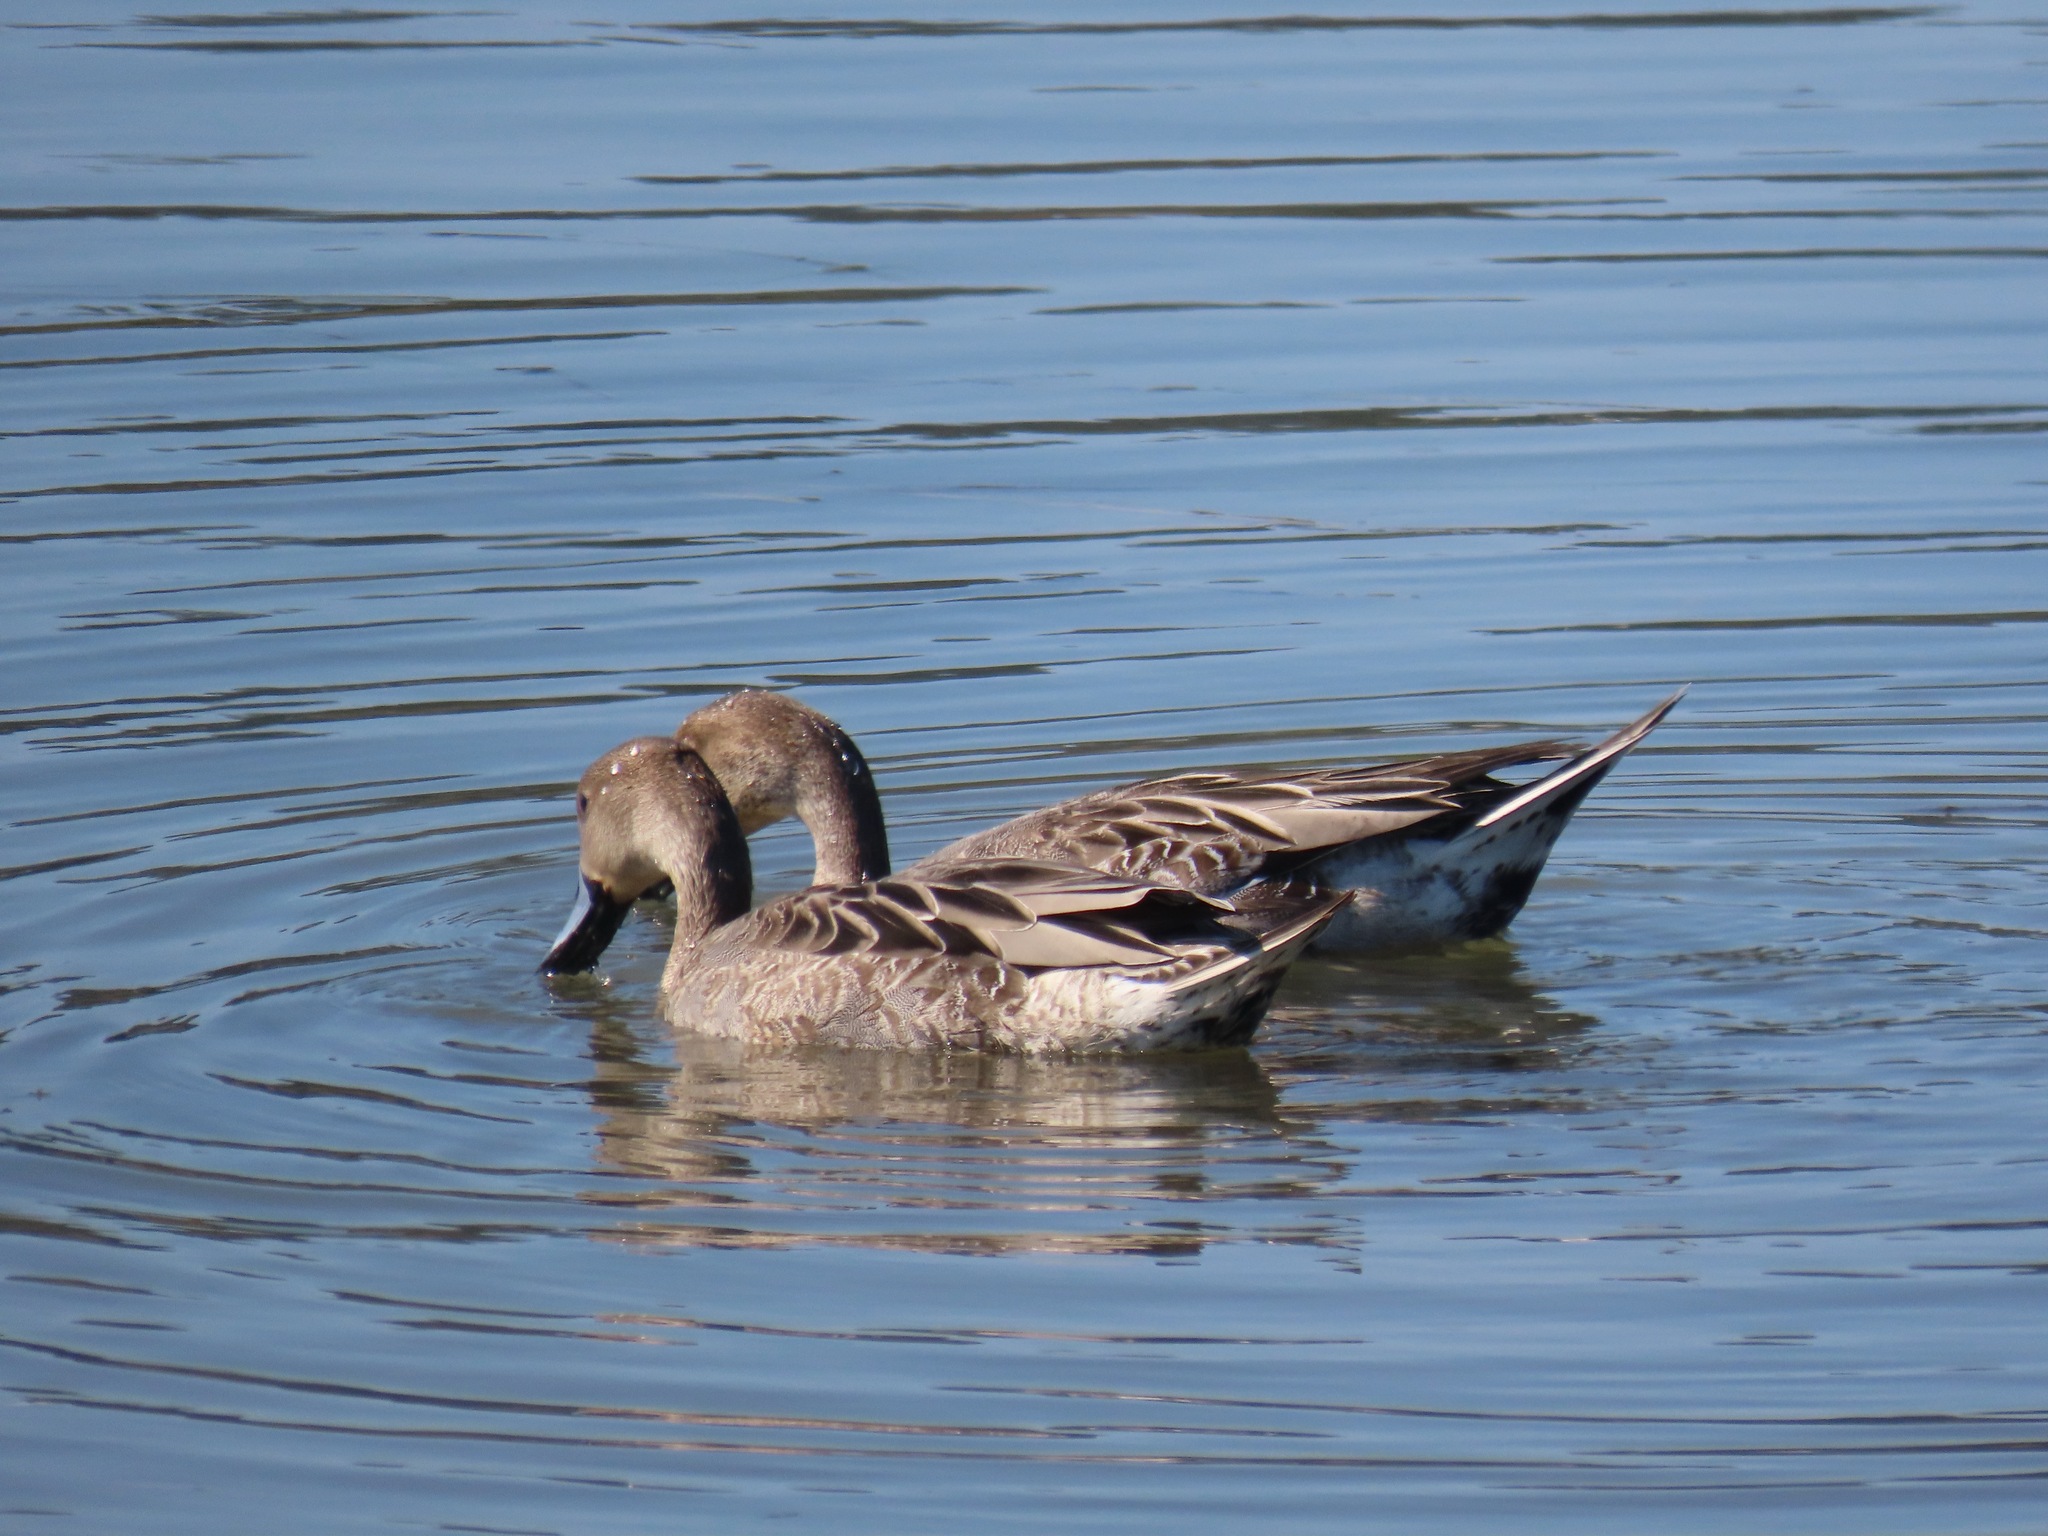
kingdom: Animalia
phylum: Chordata
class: Aves
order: Anseriformes
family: Anatidae
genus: Anas
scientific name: Anas acuta
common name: Northern pintail
